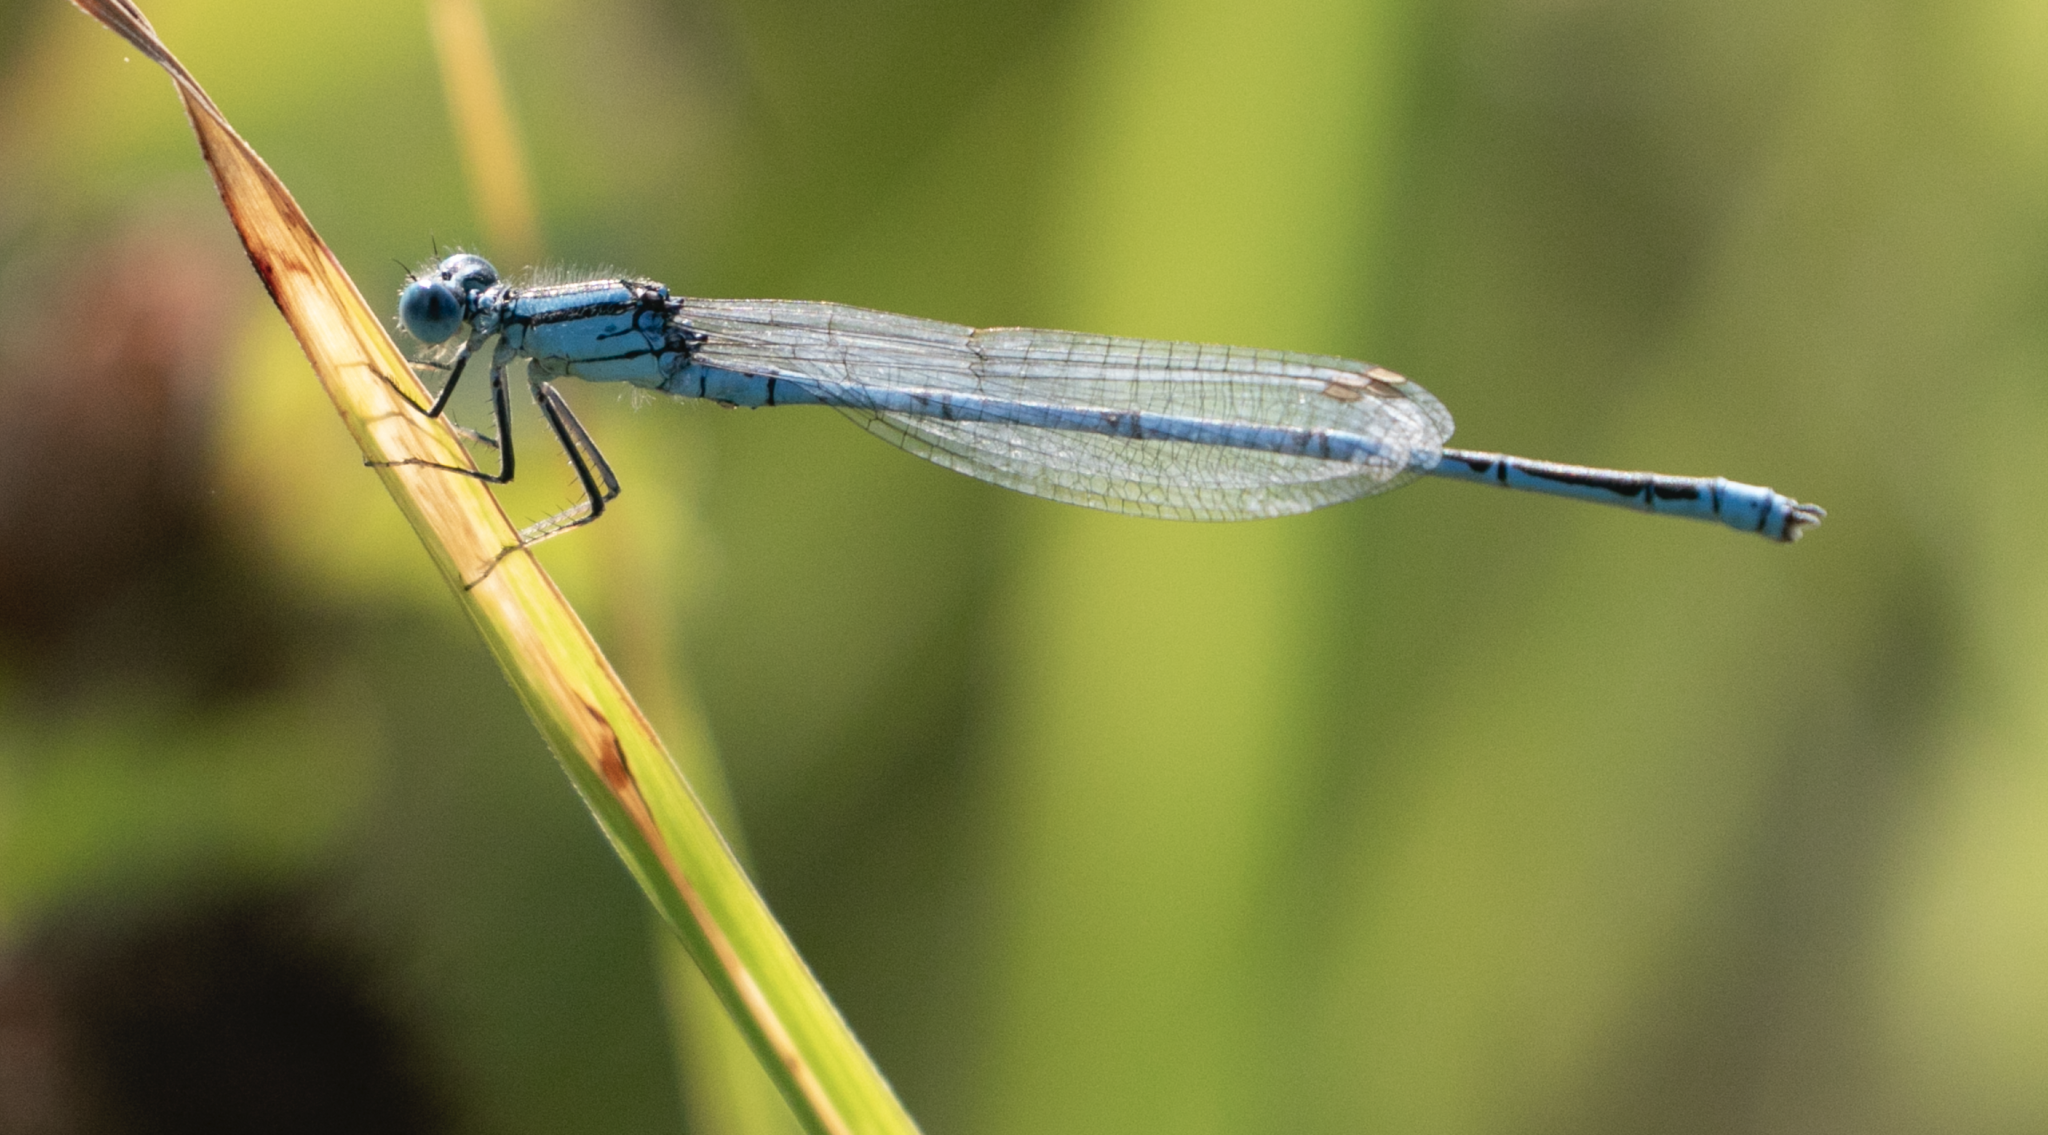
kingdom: Animalia
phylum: Arthropoda
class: Insecta
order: Odonata
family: Coenagrionidae
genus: Erythromma
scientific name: Erythromma lindenii
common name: Blue-eye
